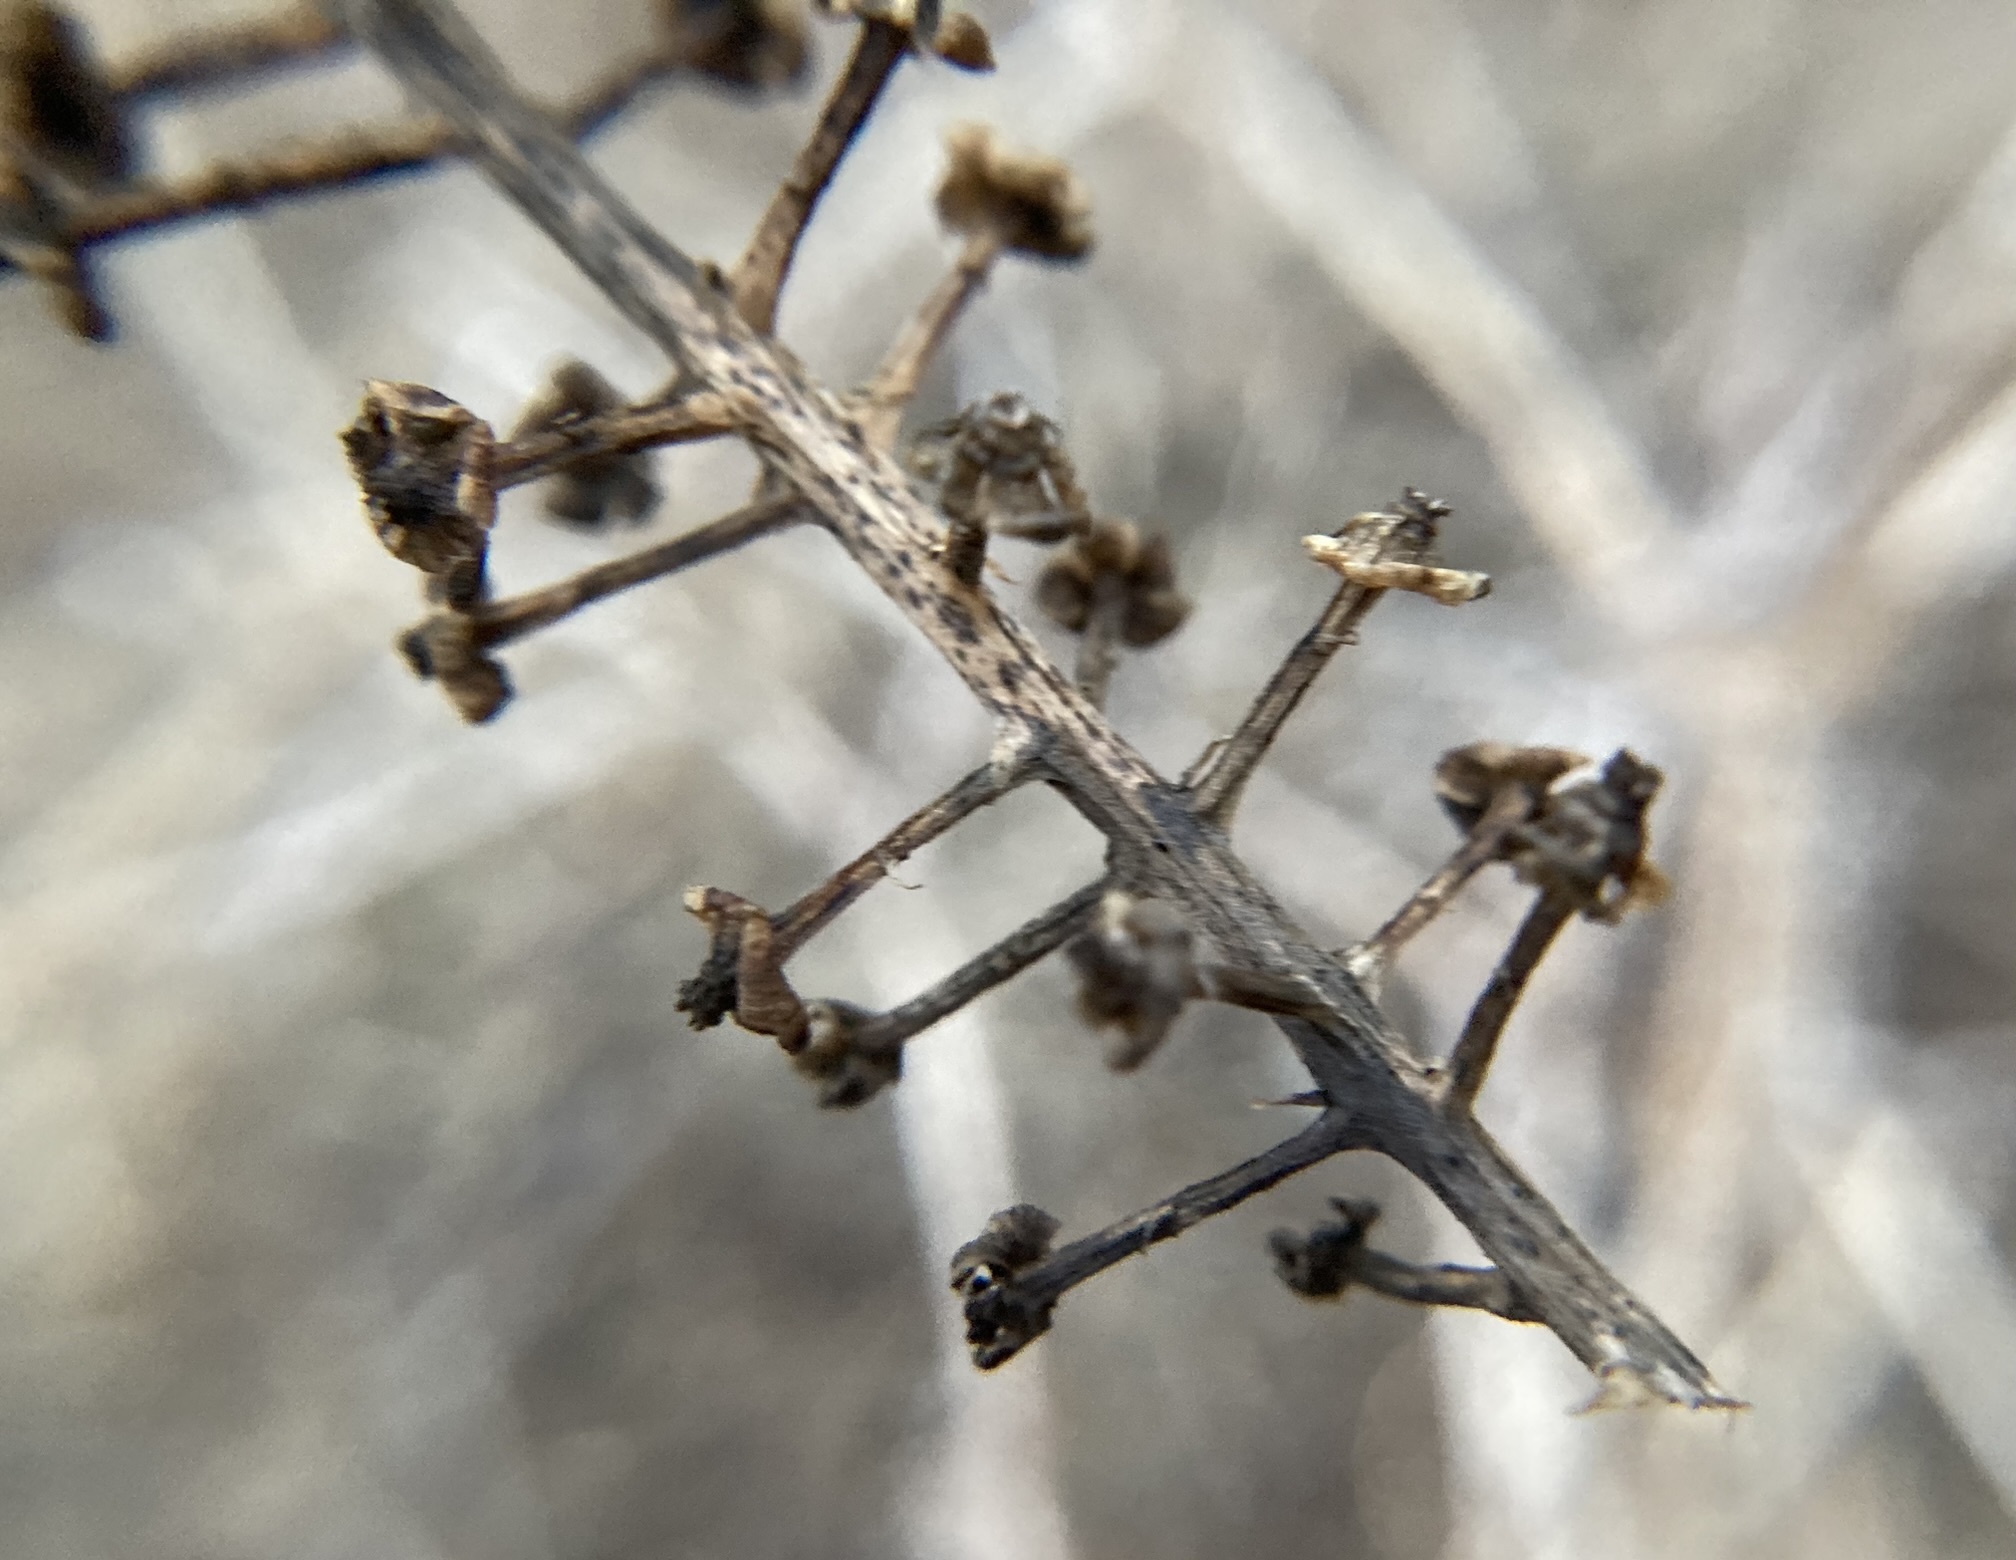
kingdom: Plantae
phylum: Tracheophyta
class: Magnoliopsida
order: Caryophyllales
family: Phytolaccaceae
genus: Phytolacca
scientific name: Phytolacca americana
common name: American pokeweed
